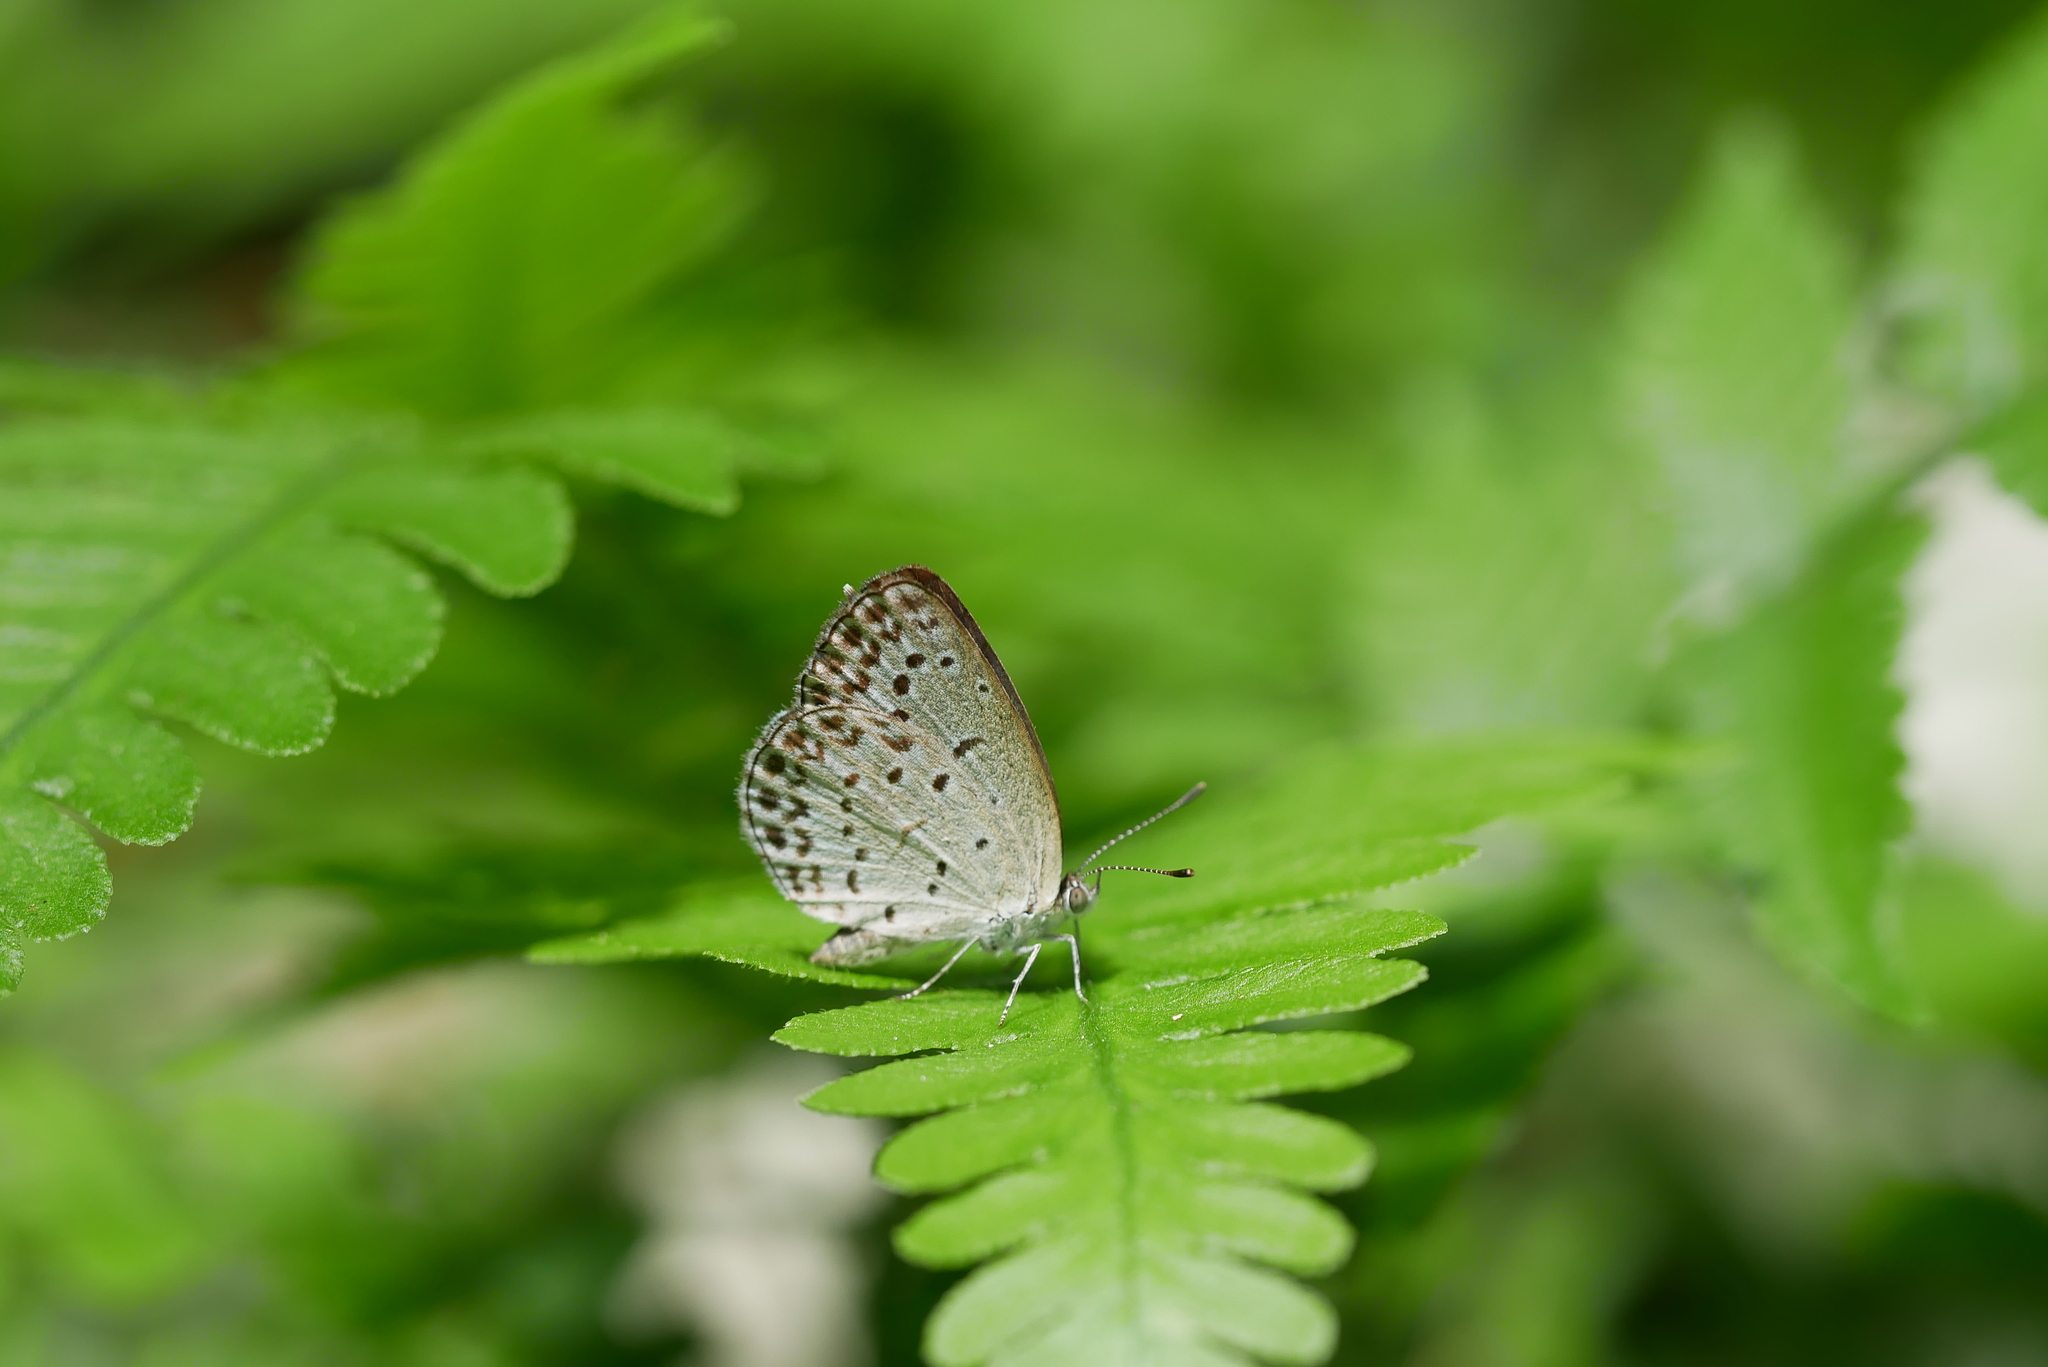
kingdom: Animalia
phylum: Arthropoda
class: Insecta
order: Lepidoptera
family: Lycaenidae
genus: Pseudozizeeria
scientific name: Pseudozizeeria maha
